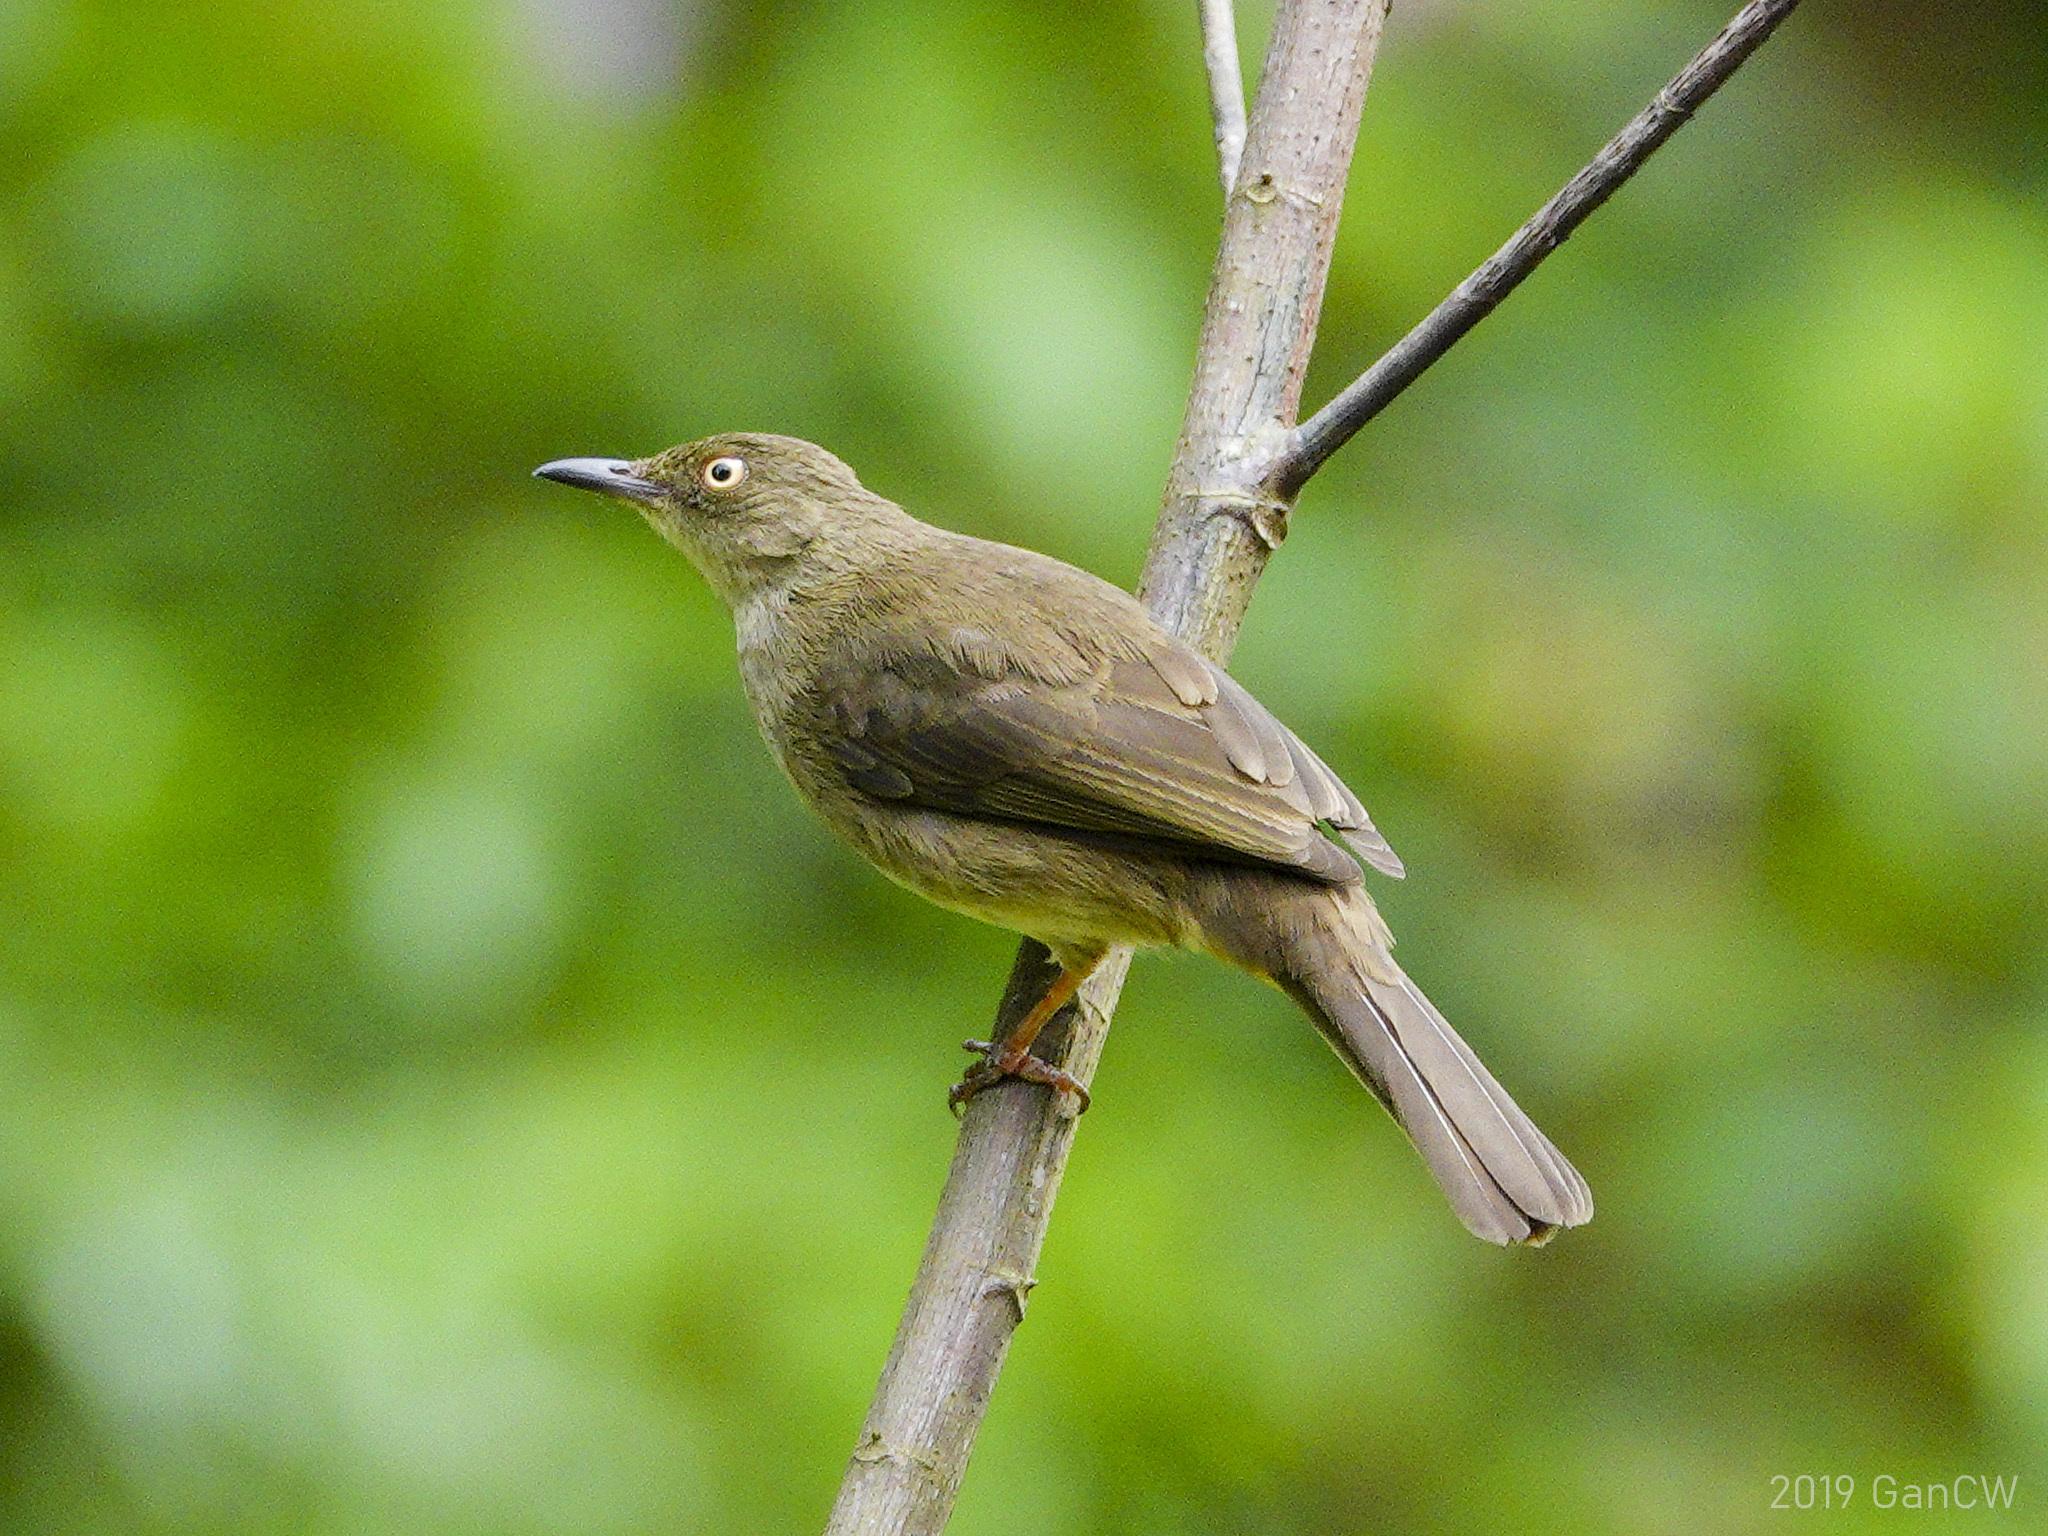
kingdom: Animalia
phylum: Chordata
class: Aves
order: Passeriformes
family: Pycnonotidae
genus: Pycnonotus
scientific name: Pycnonotus simplex
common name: Cream-vented bulbul
